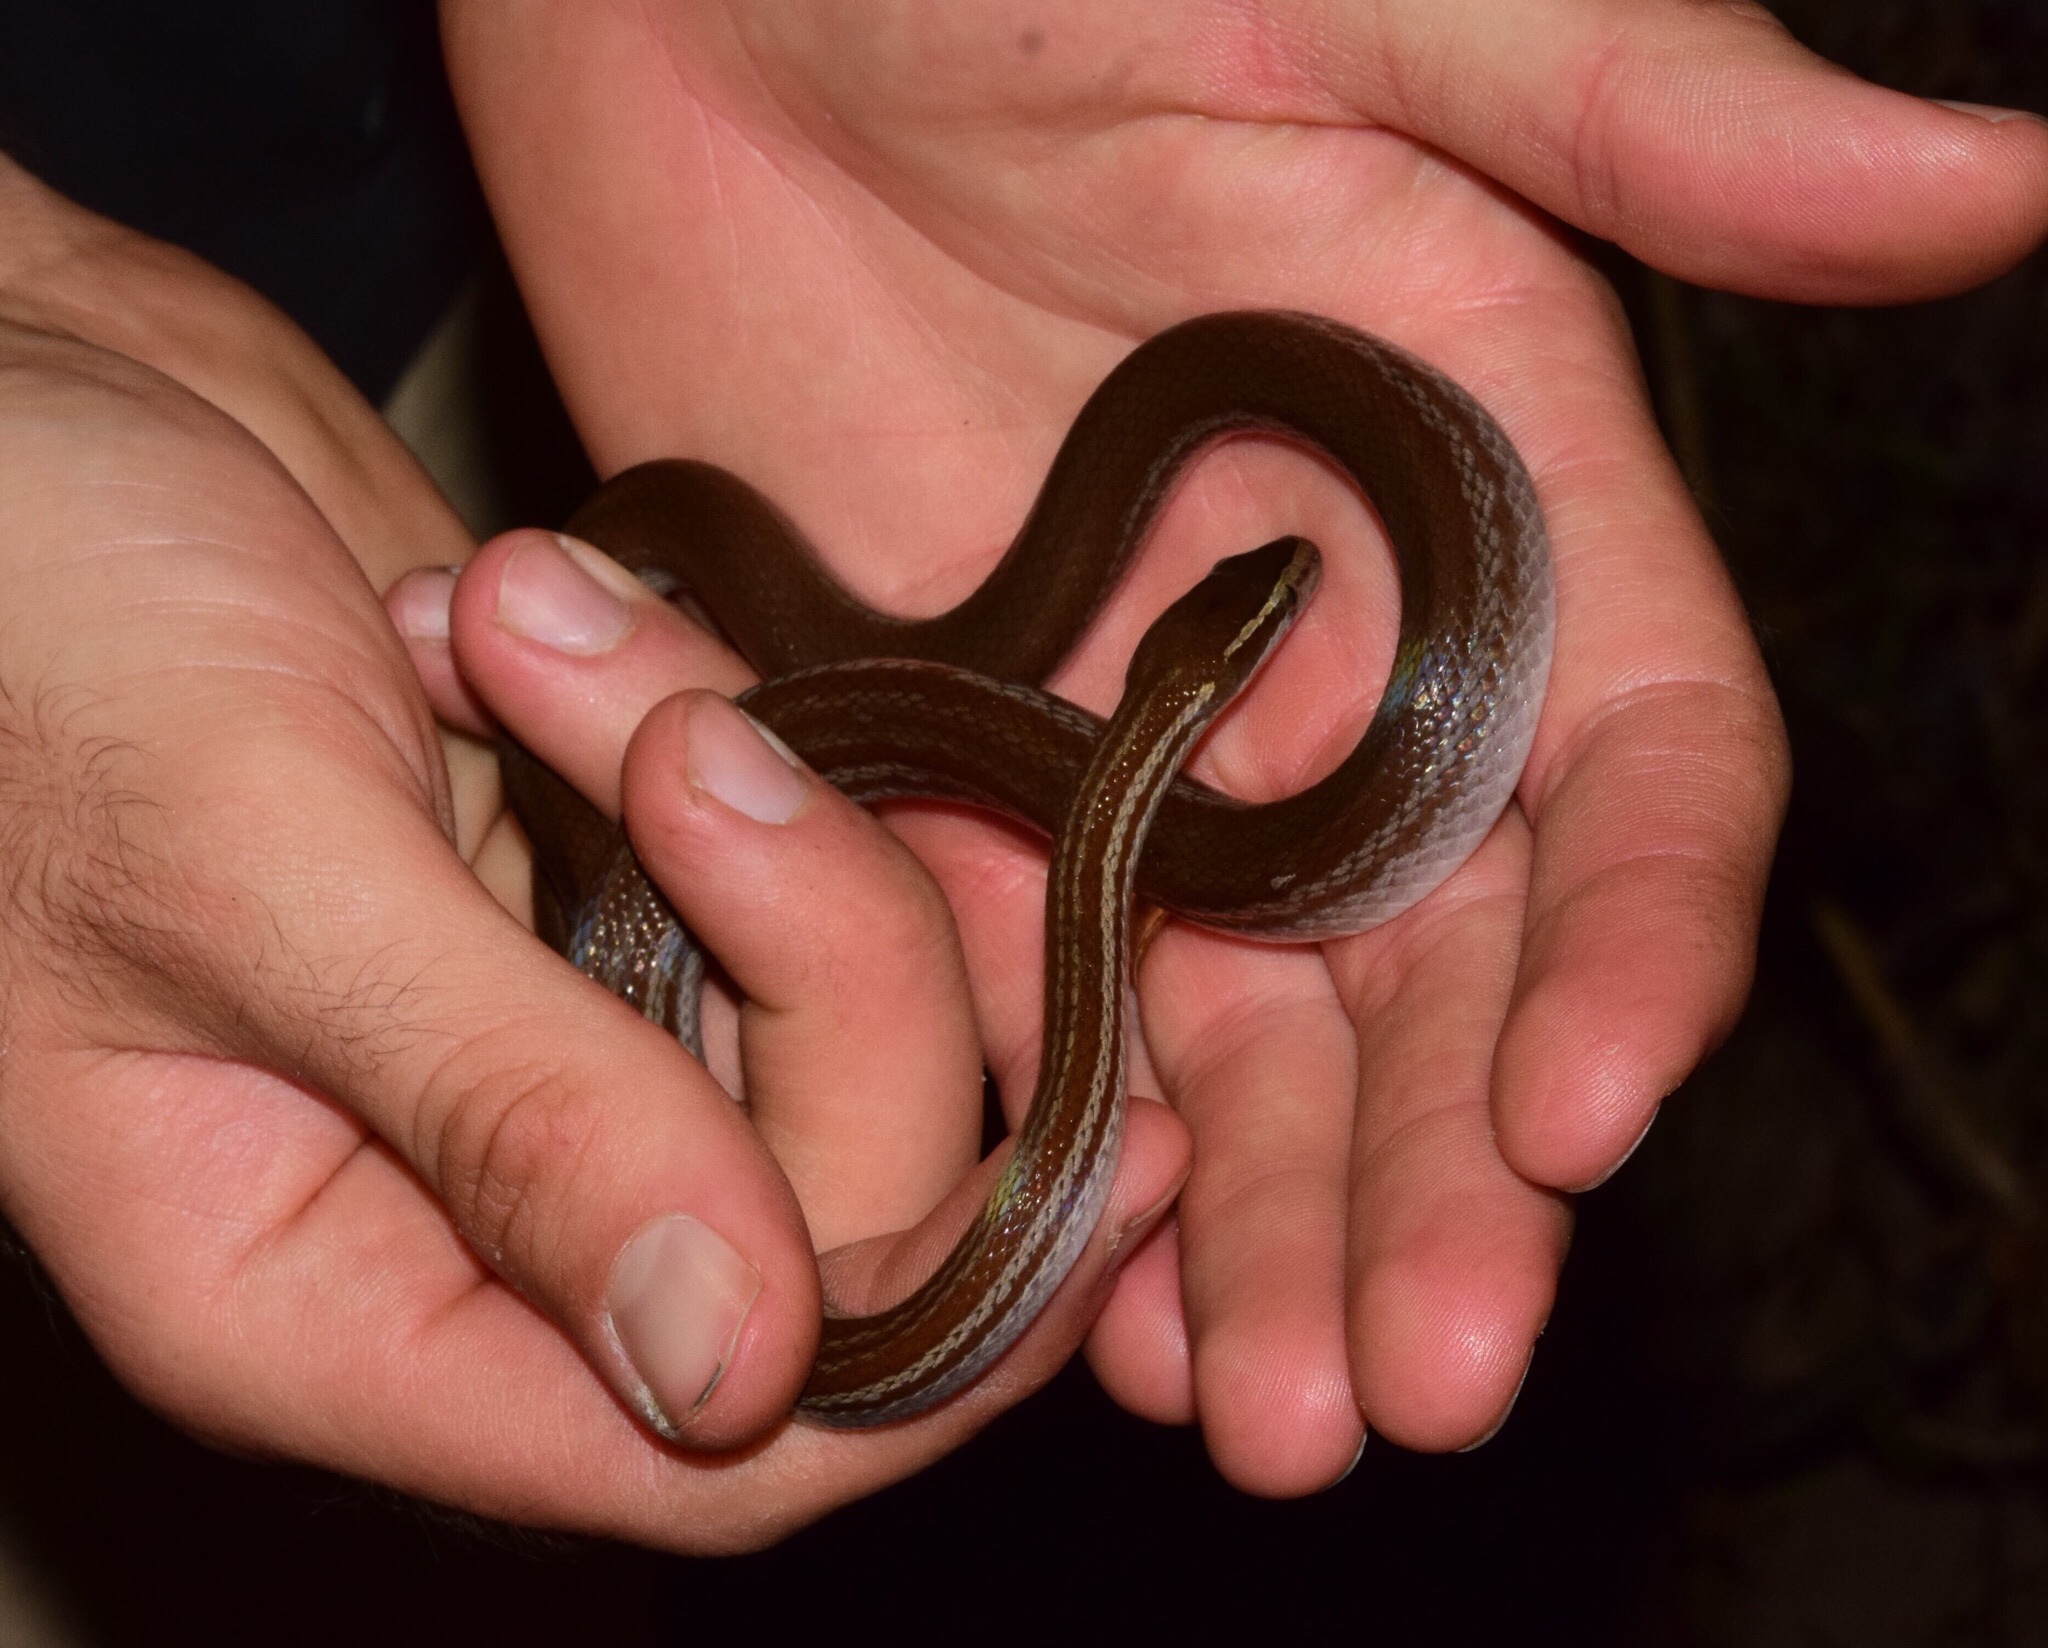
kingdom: Animalia
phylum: Chordata
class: Squamata
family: Lamprophiidae
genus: Boaedon
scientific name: Boaedon capensis
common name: Brown house snake
